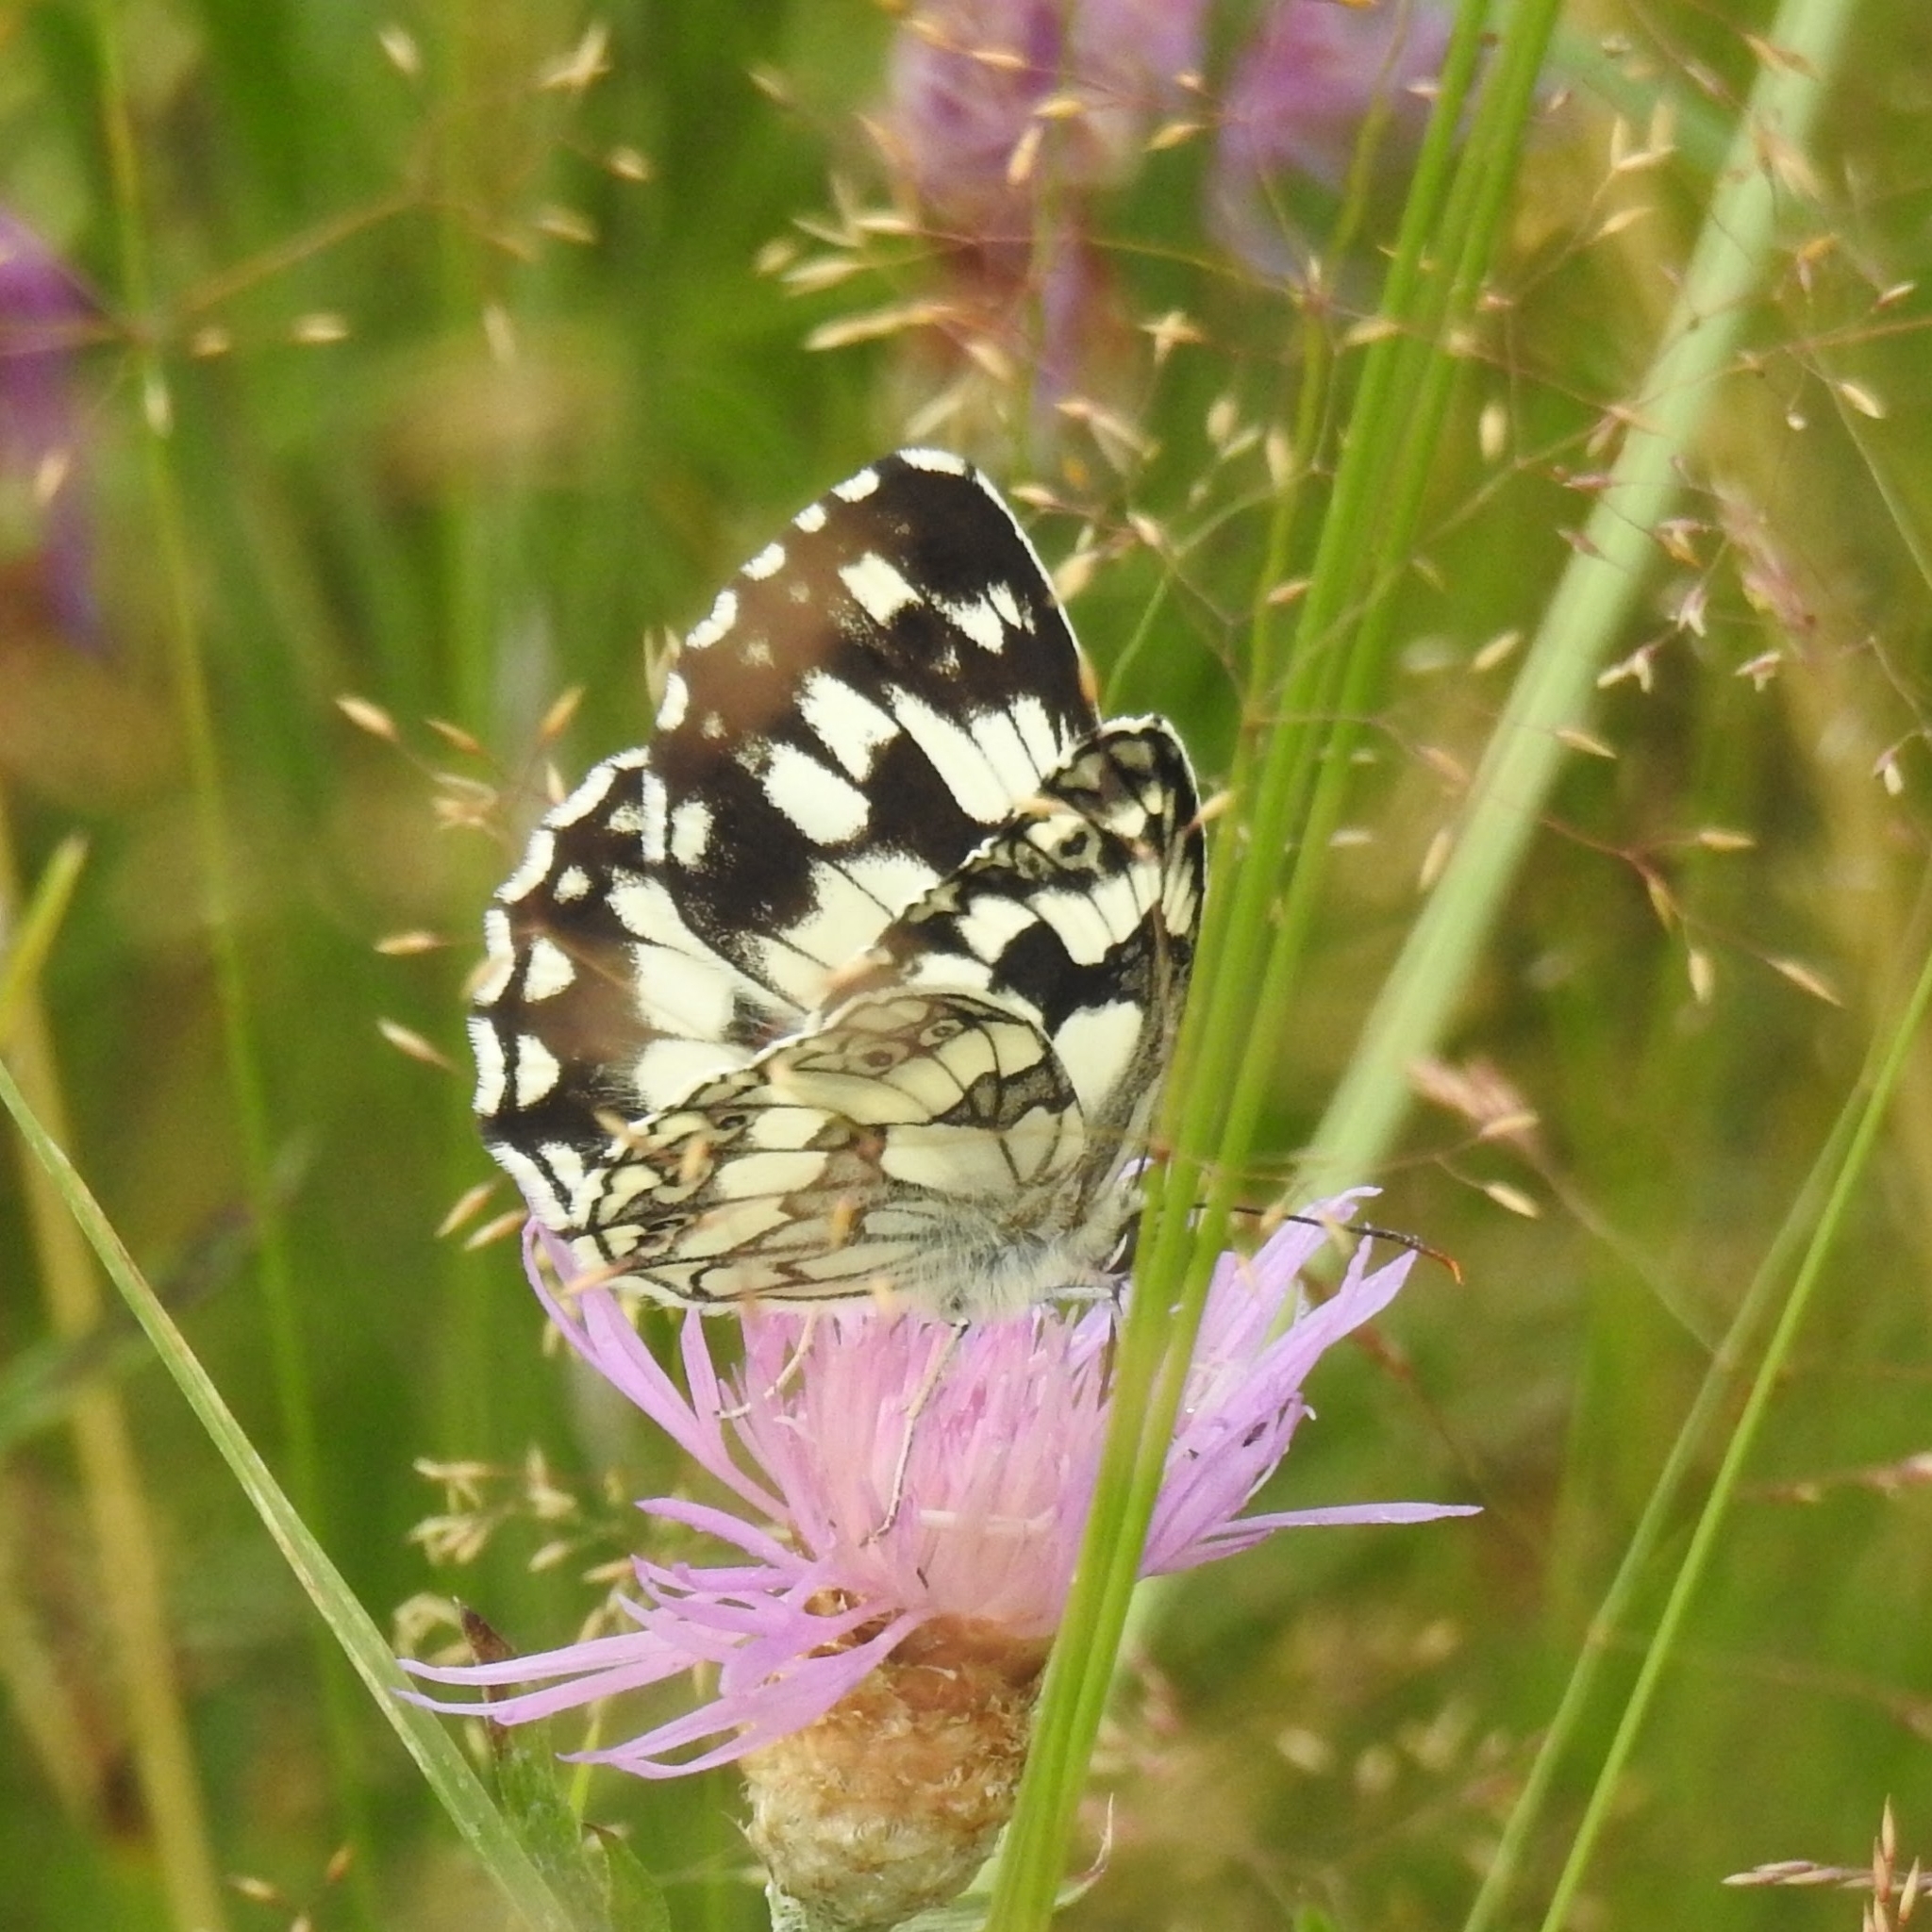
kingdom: Animalia
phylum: Arthropoda
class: Insecta
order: Lepidoptera
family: Nymphalidae
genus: Melanargia
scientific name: Melanargia galathea
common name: Marbled white
